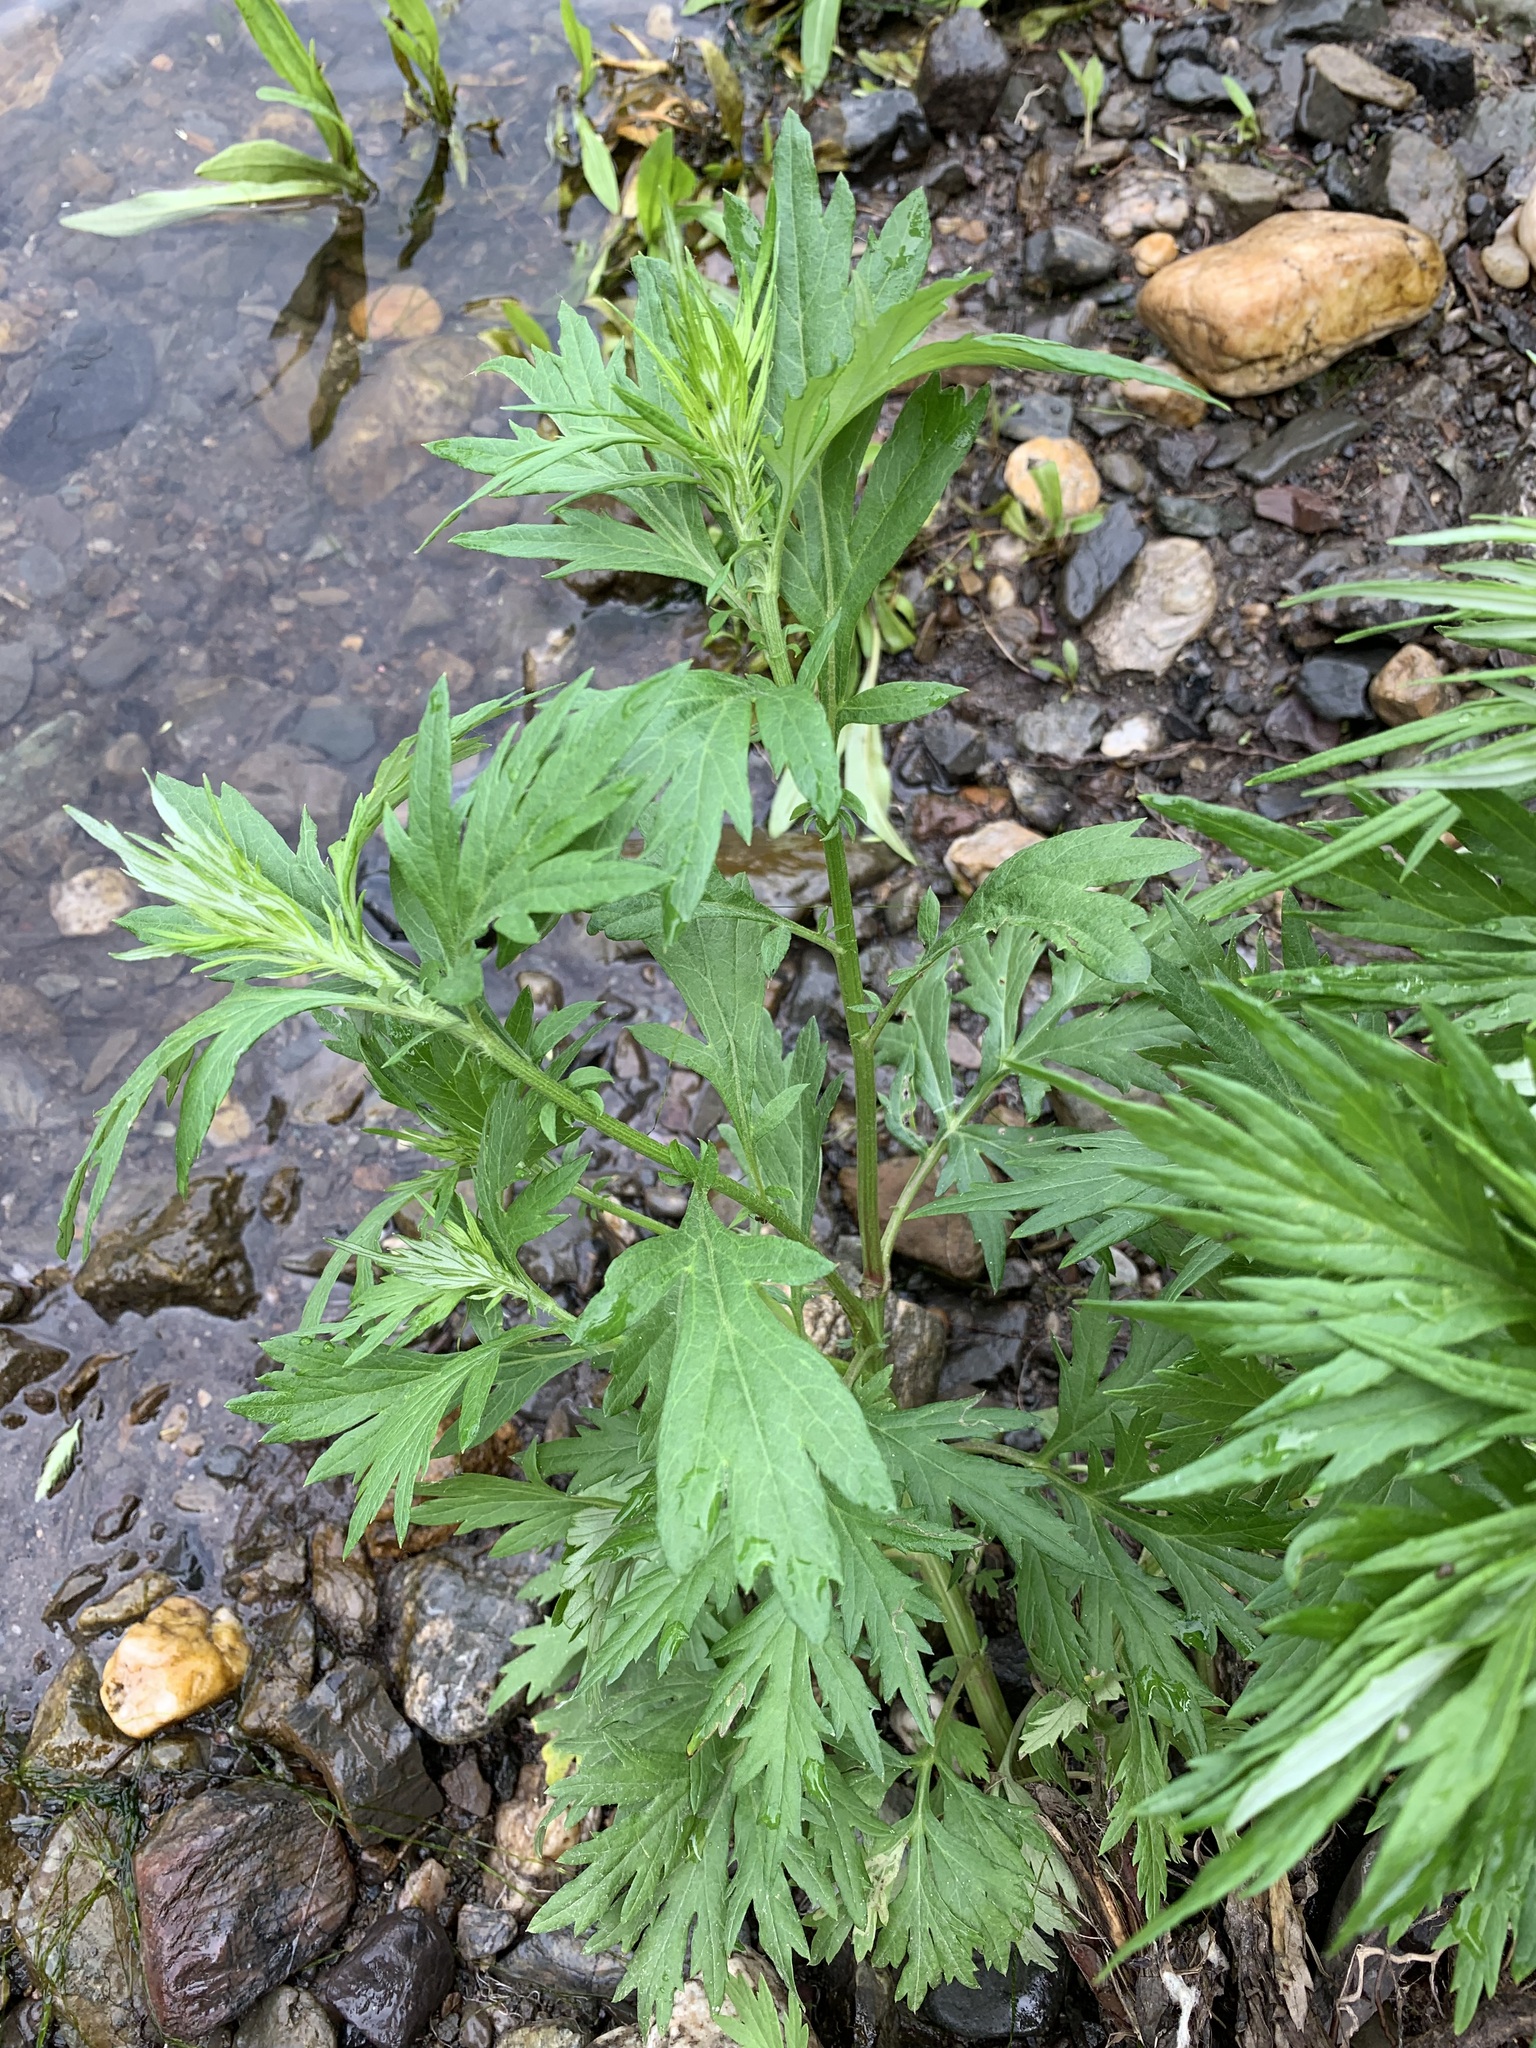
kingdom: Plantae
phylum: Tracheophyta
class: Magnoliopsida
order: Asterales
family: Asteraceae
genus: Artemisia
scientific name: Artemisia vulgaris
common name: Mugwort
